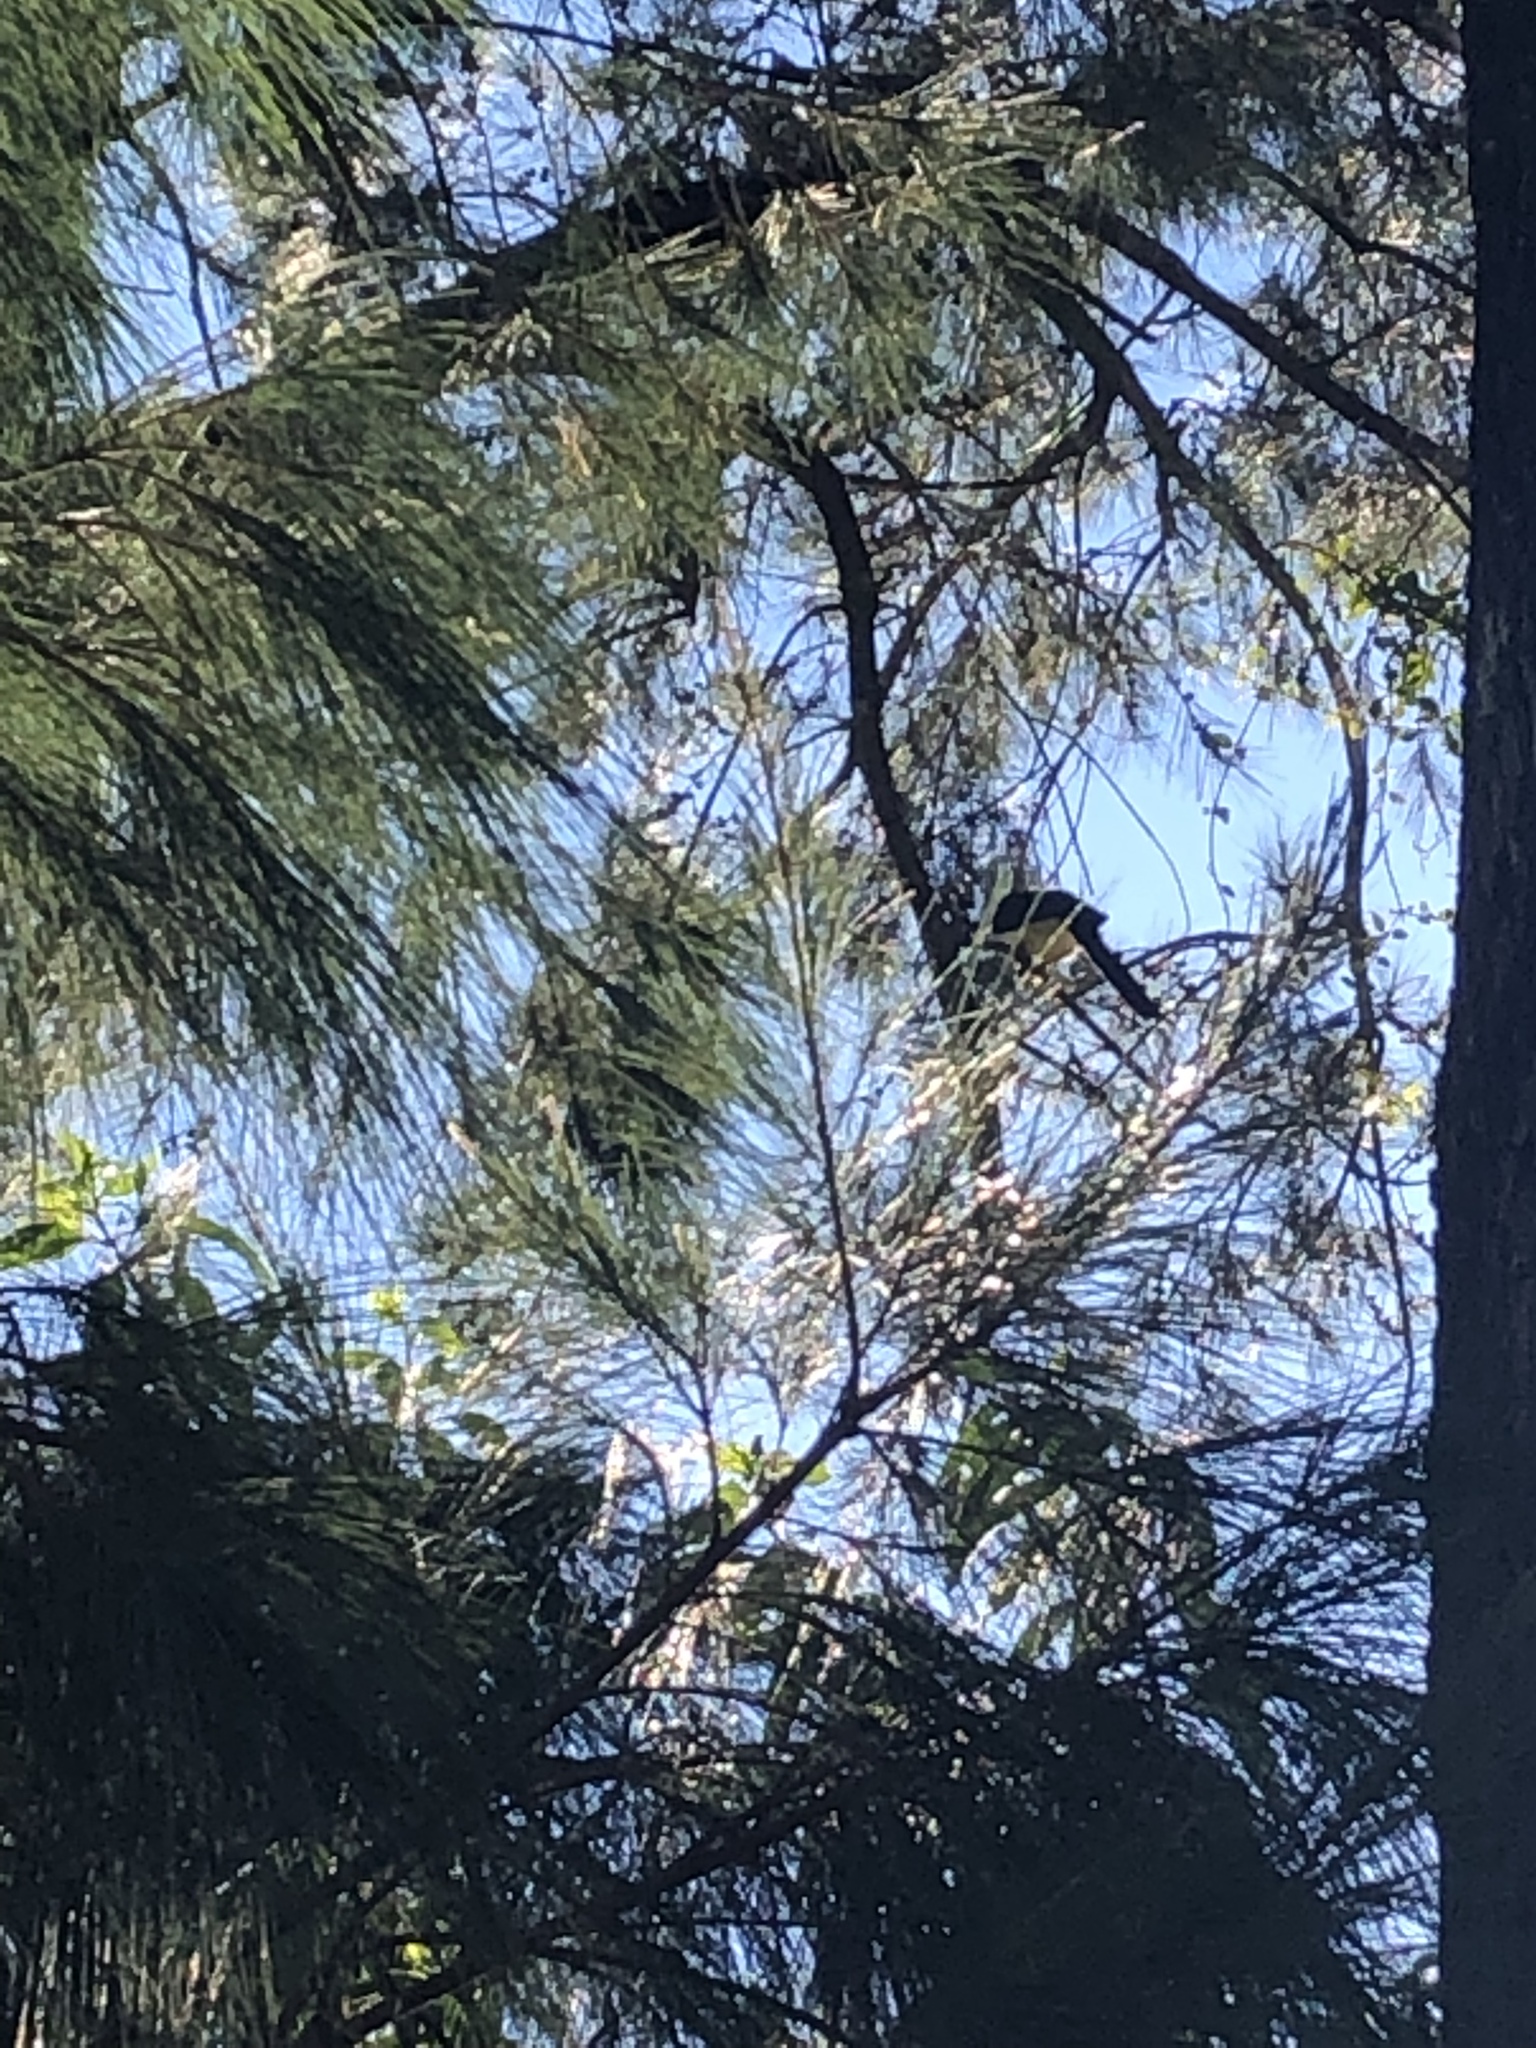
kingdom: Animalia
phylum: Chordata
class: Aves
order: Passeriformes
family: Corvidae
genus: Calocitta
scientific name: Calocitta formosa
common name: White-throated magpie-jay
